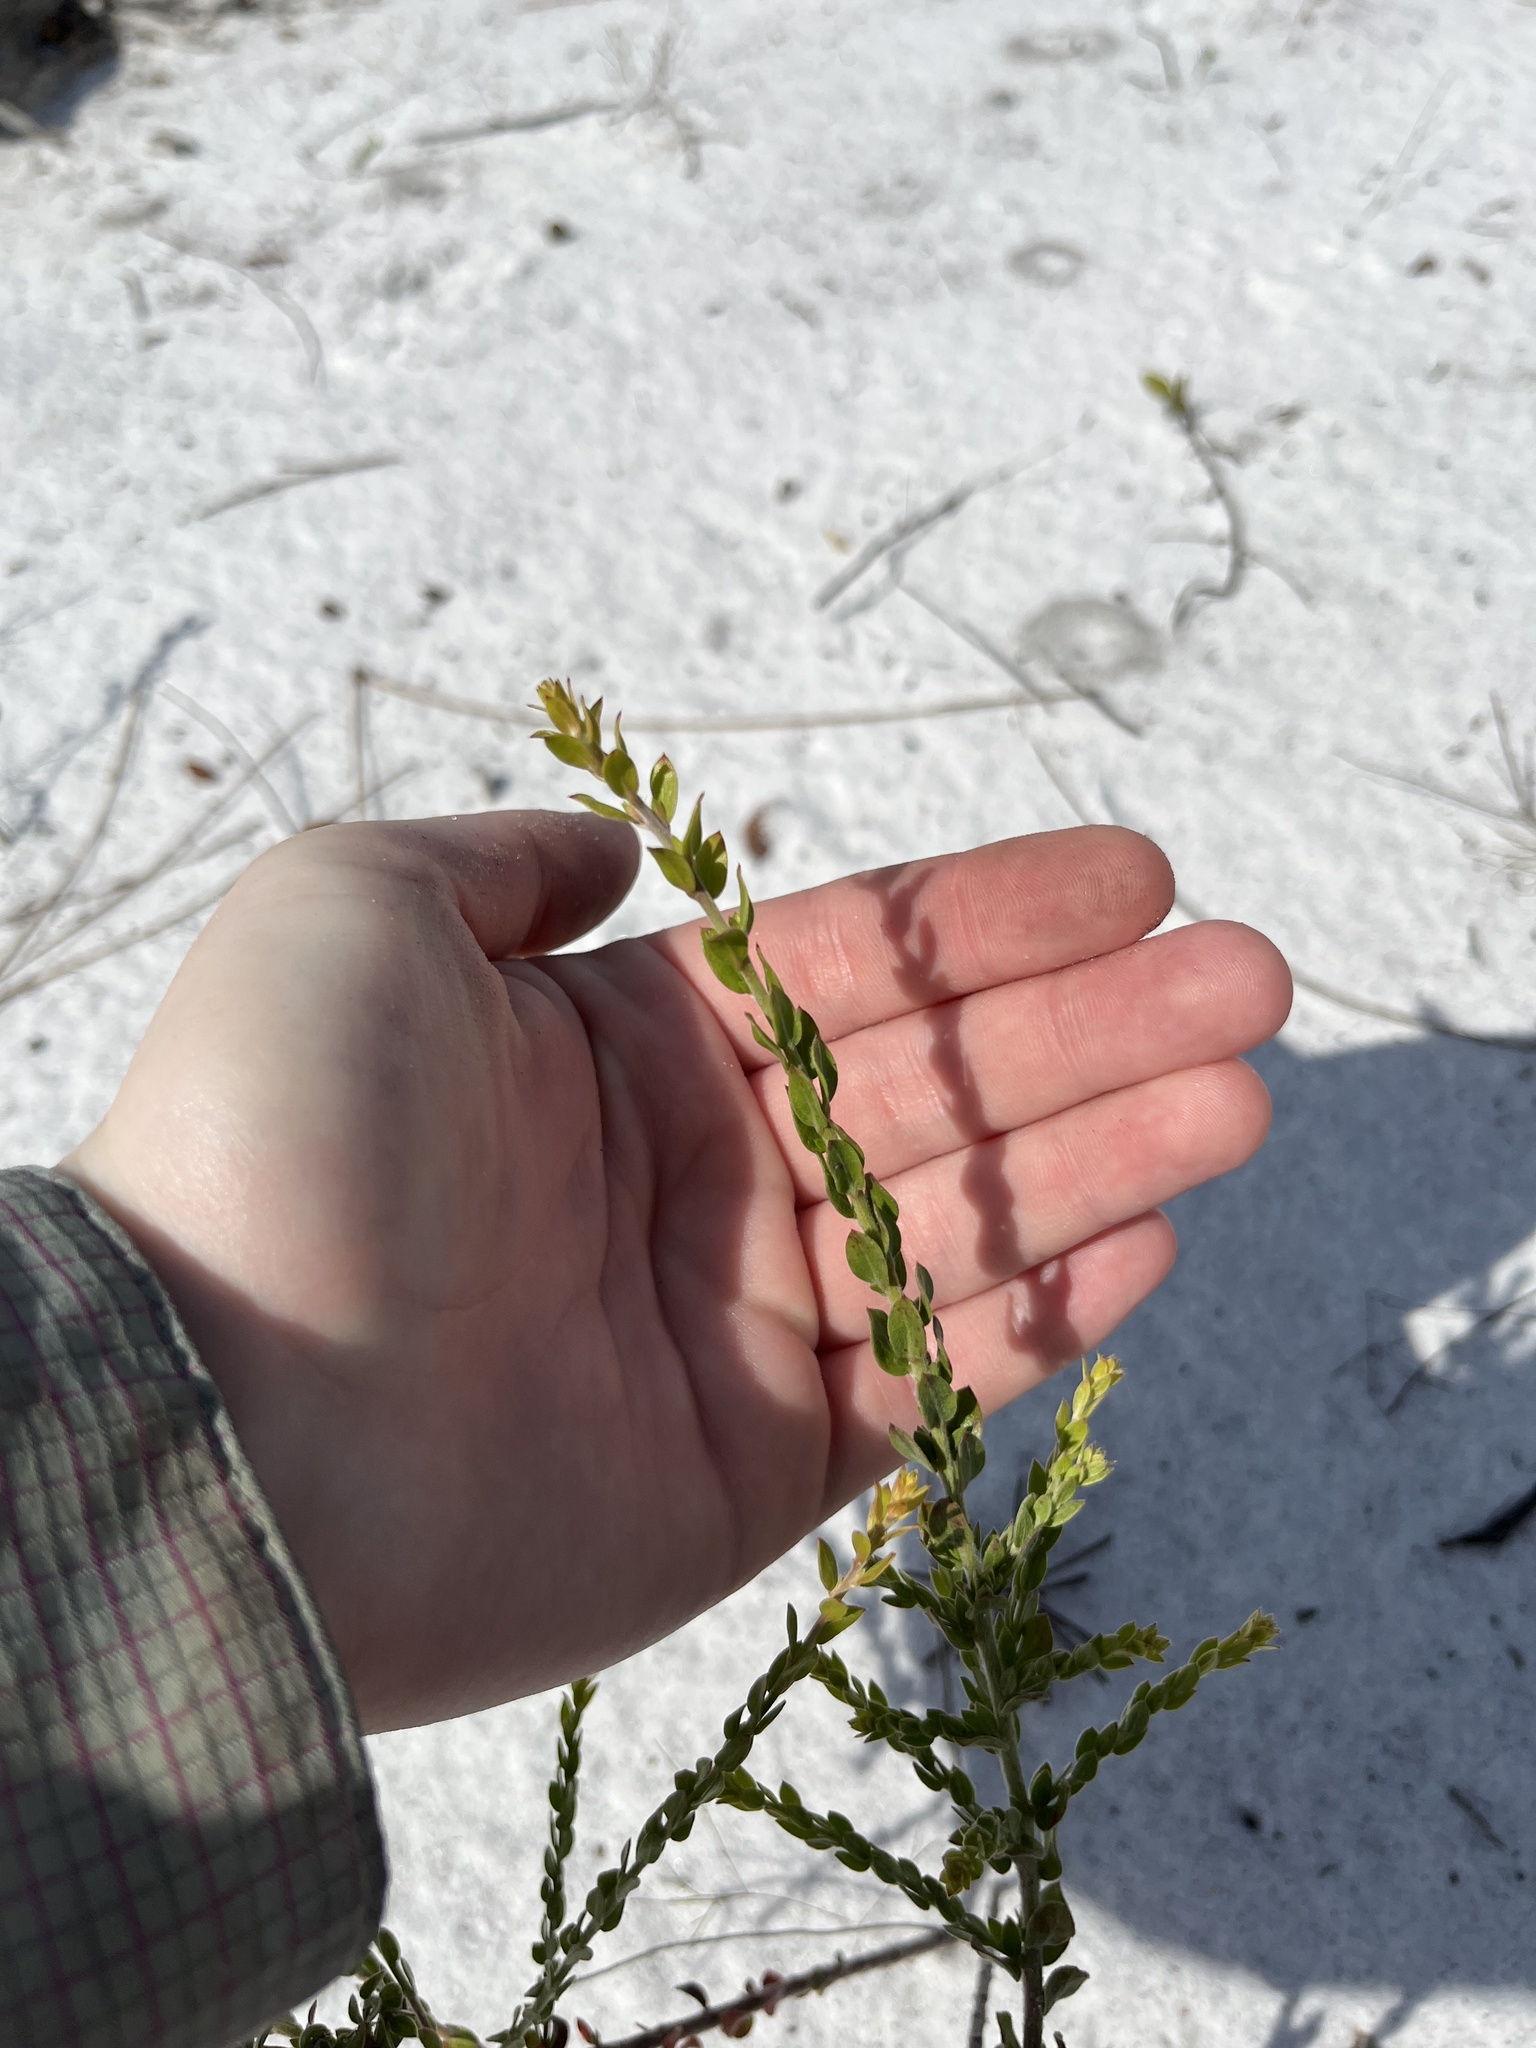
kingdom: Plantae
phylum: Tracheophyta
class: Magnoliopsida
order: Malvales
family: Cistaceae
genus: Lechea
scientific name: Lechea cernua
